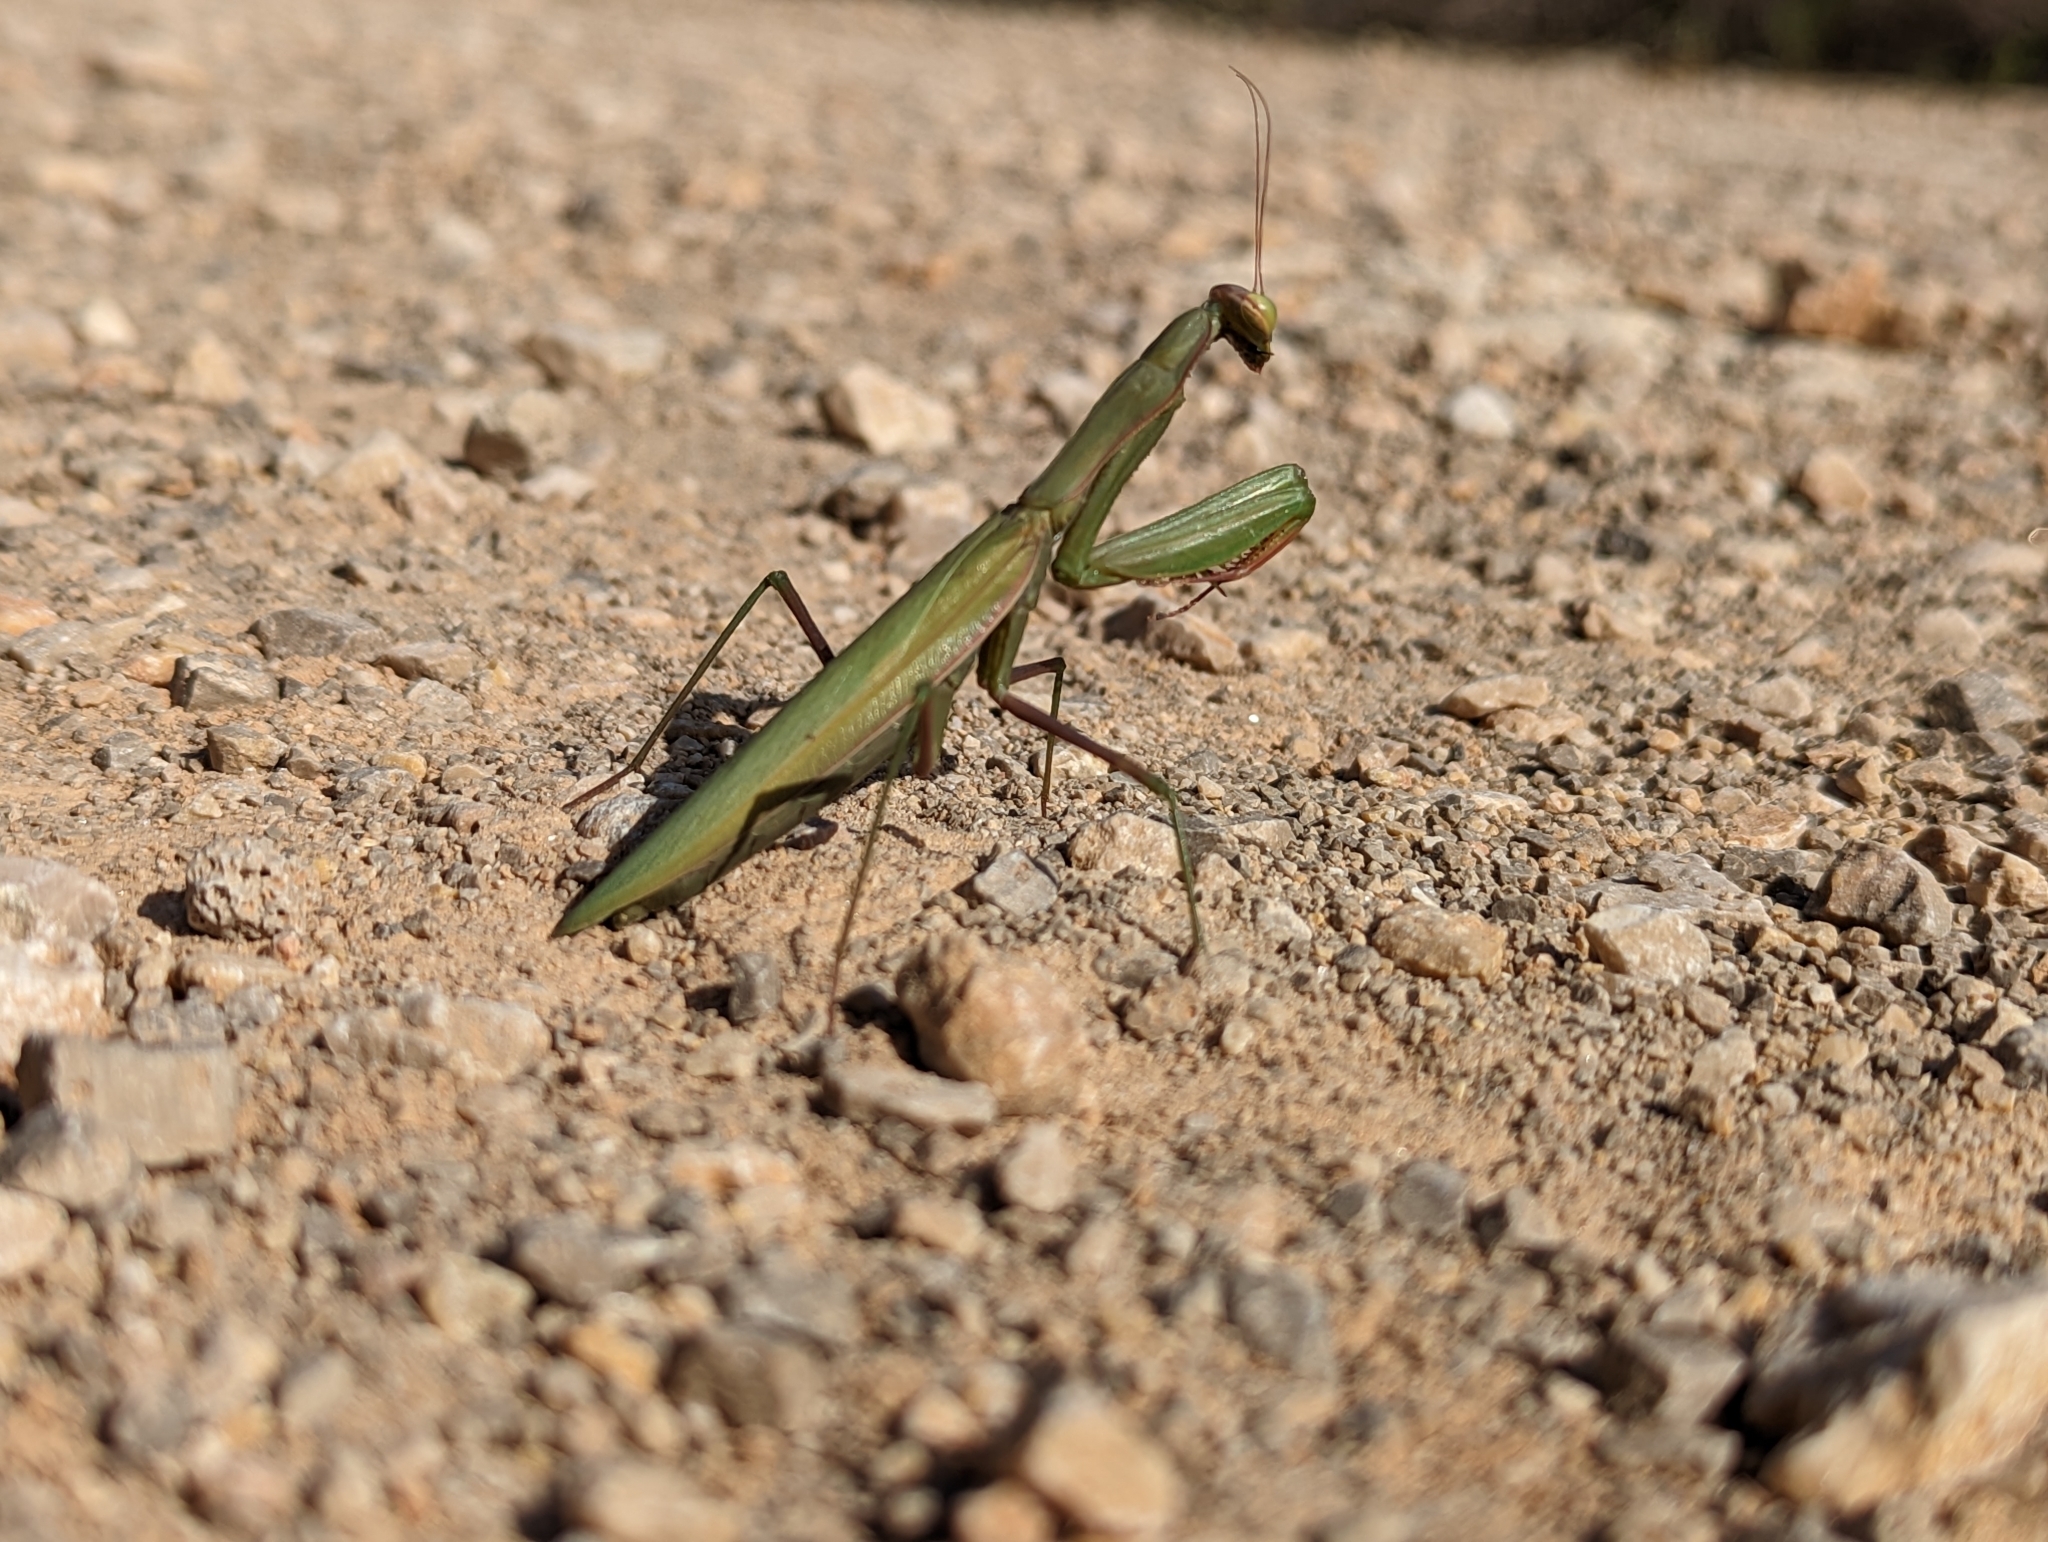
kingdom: Animalia
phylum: Arthropoda
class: Insecta
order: Mantodea
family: Mantidae
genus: Mantis
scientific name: Mantis religiosa
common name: Praying mantis
